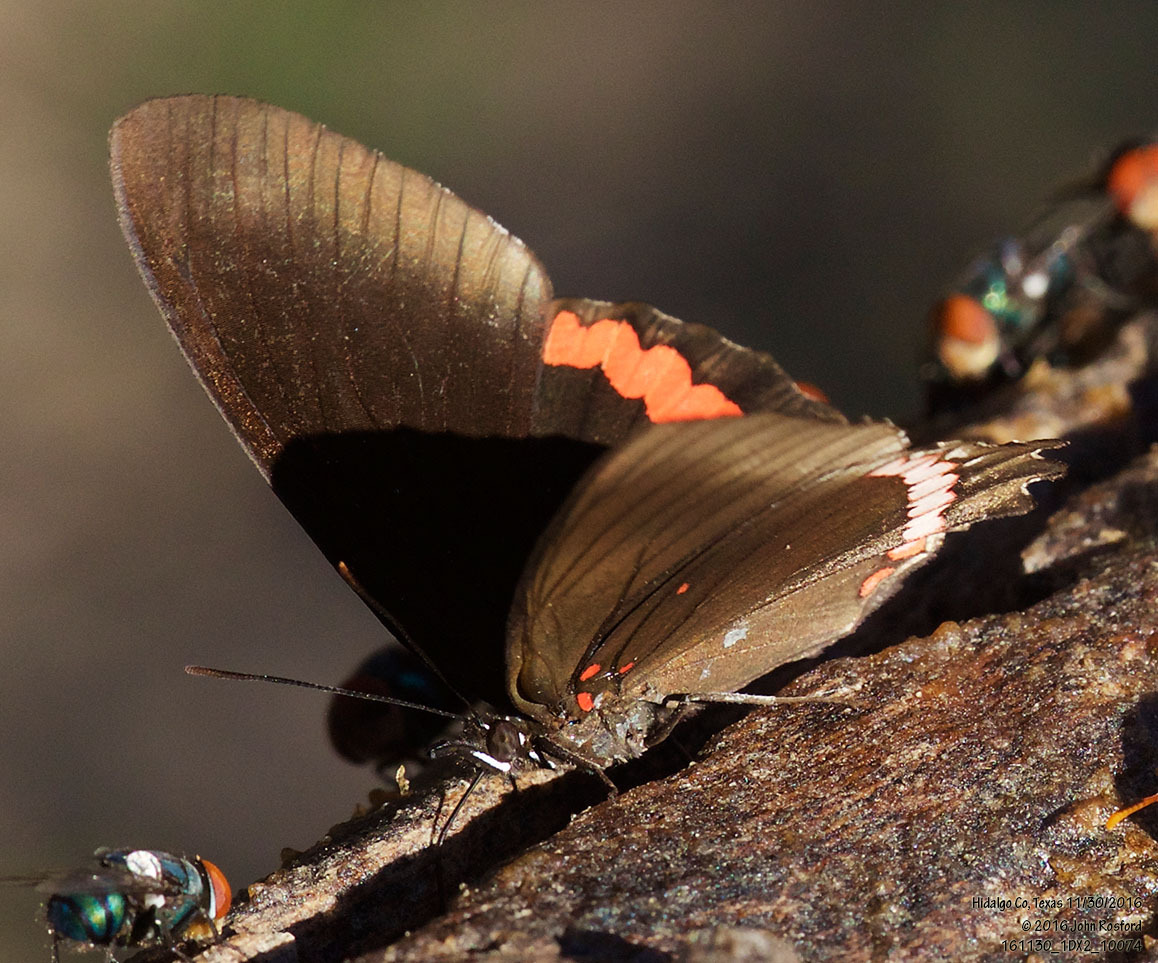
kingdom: Animalia
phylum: Arthropoda
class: Insecta
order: Lepidoptera
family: Nymphalidae
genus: Biblis
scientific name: Biblis aganisa
